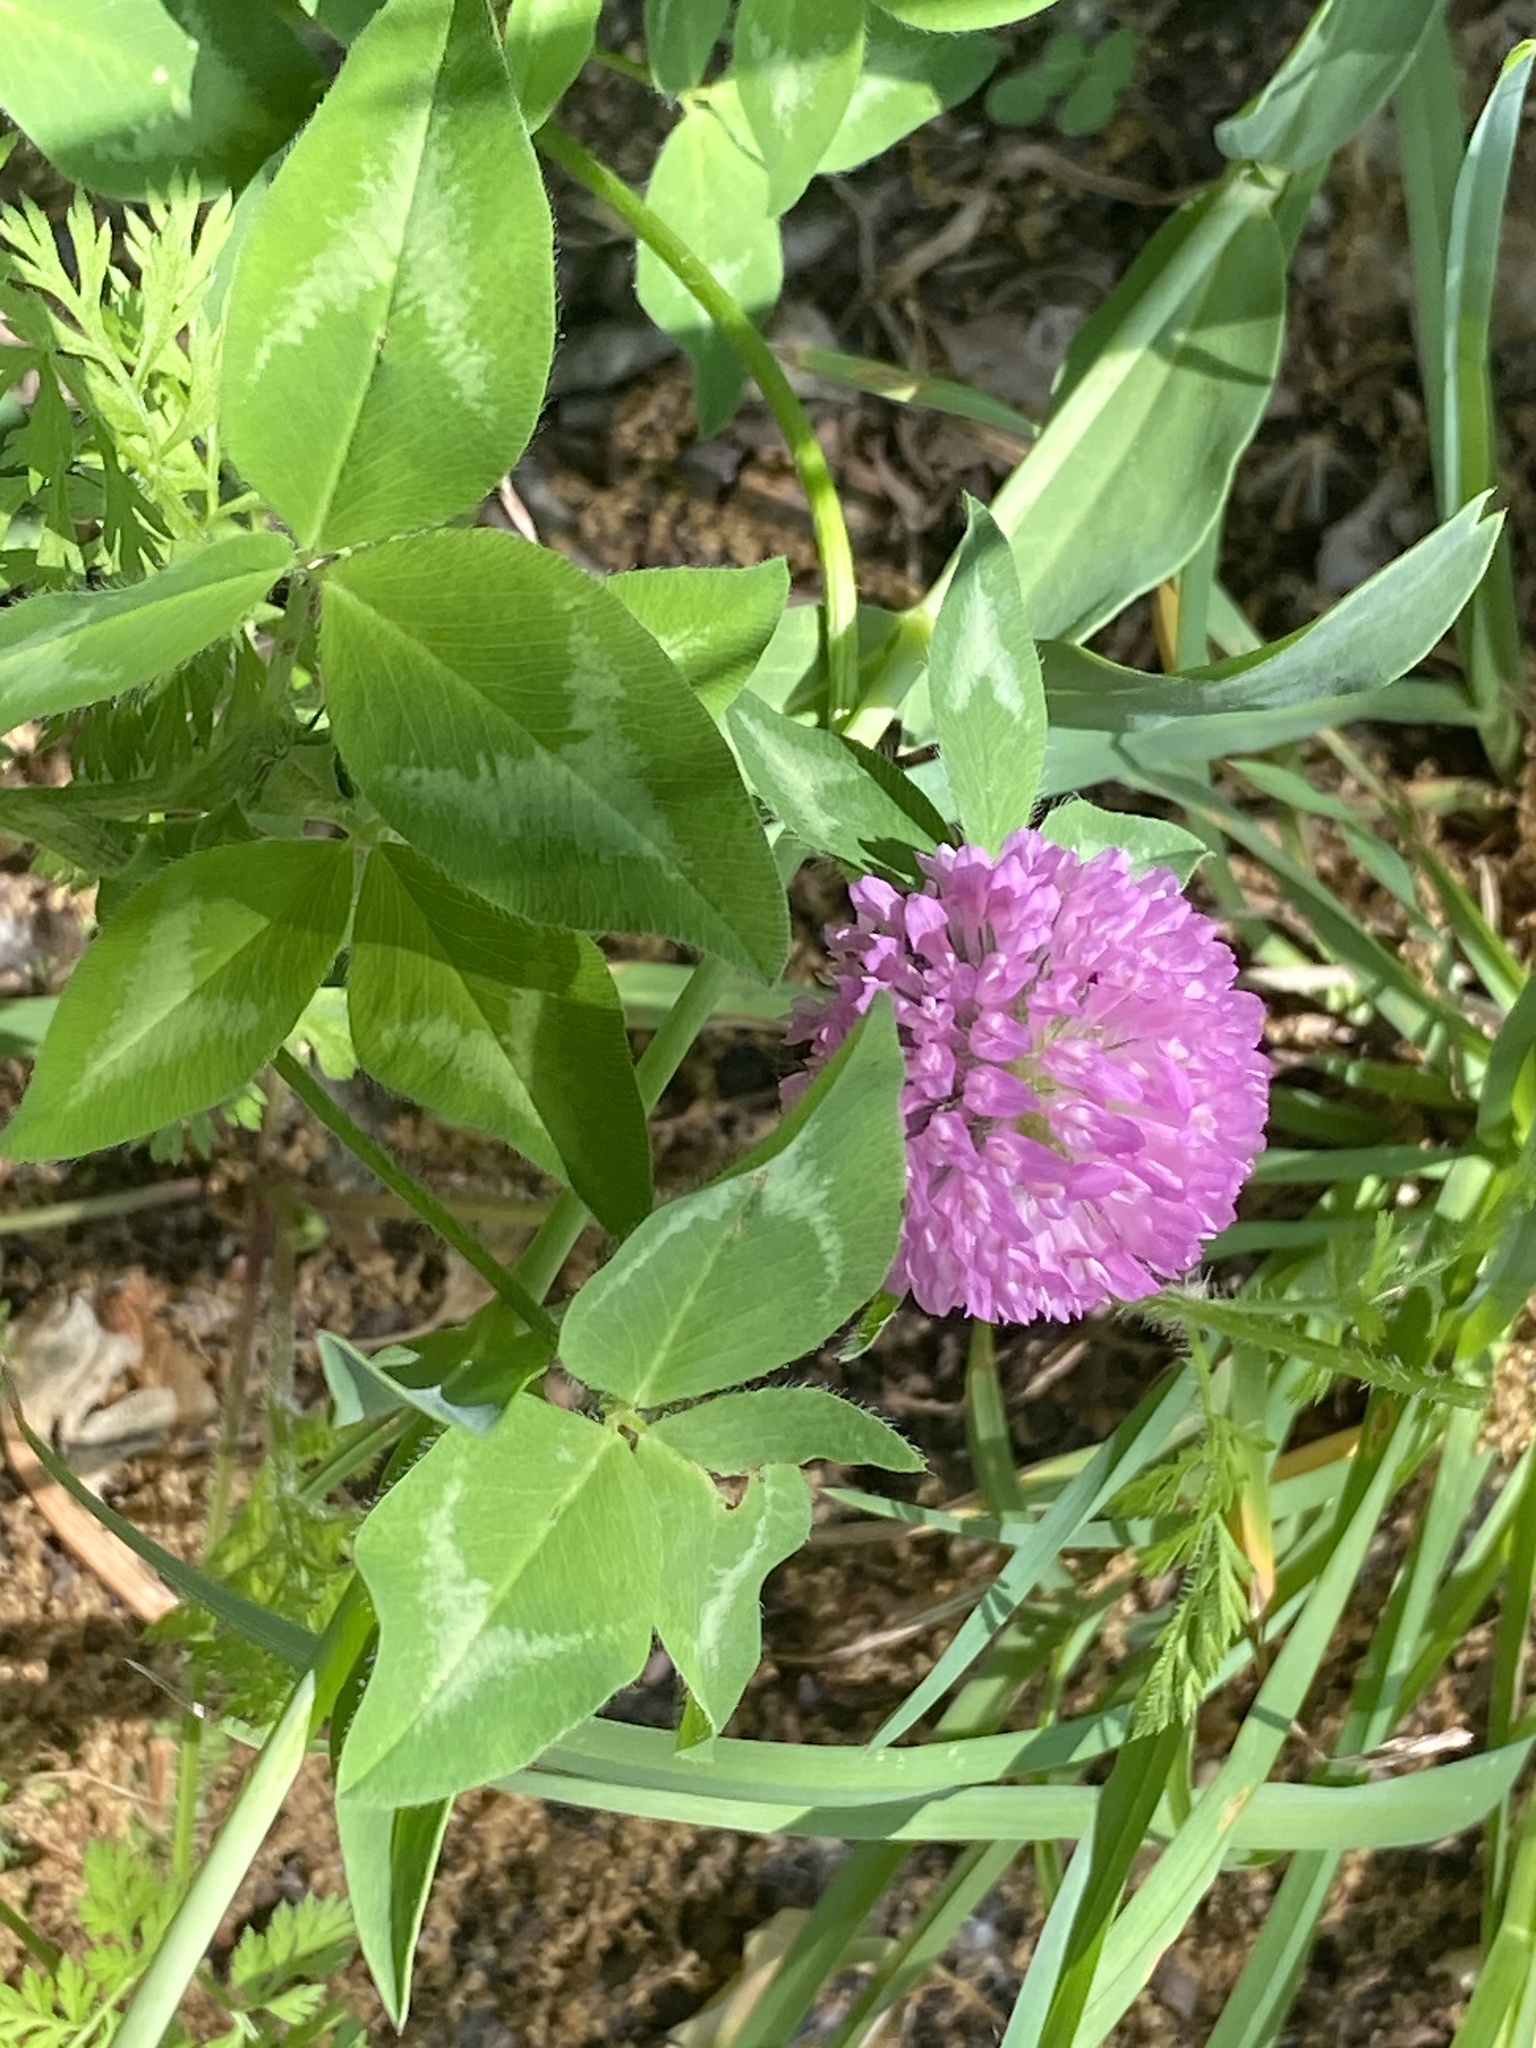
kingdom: Plantae
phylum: Tracheophyta
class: Magnoliopsida
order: Fabales
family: Fabaceae
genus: Trifolium
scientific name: Trifolium pratense
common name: Red clover
